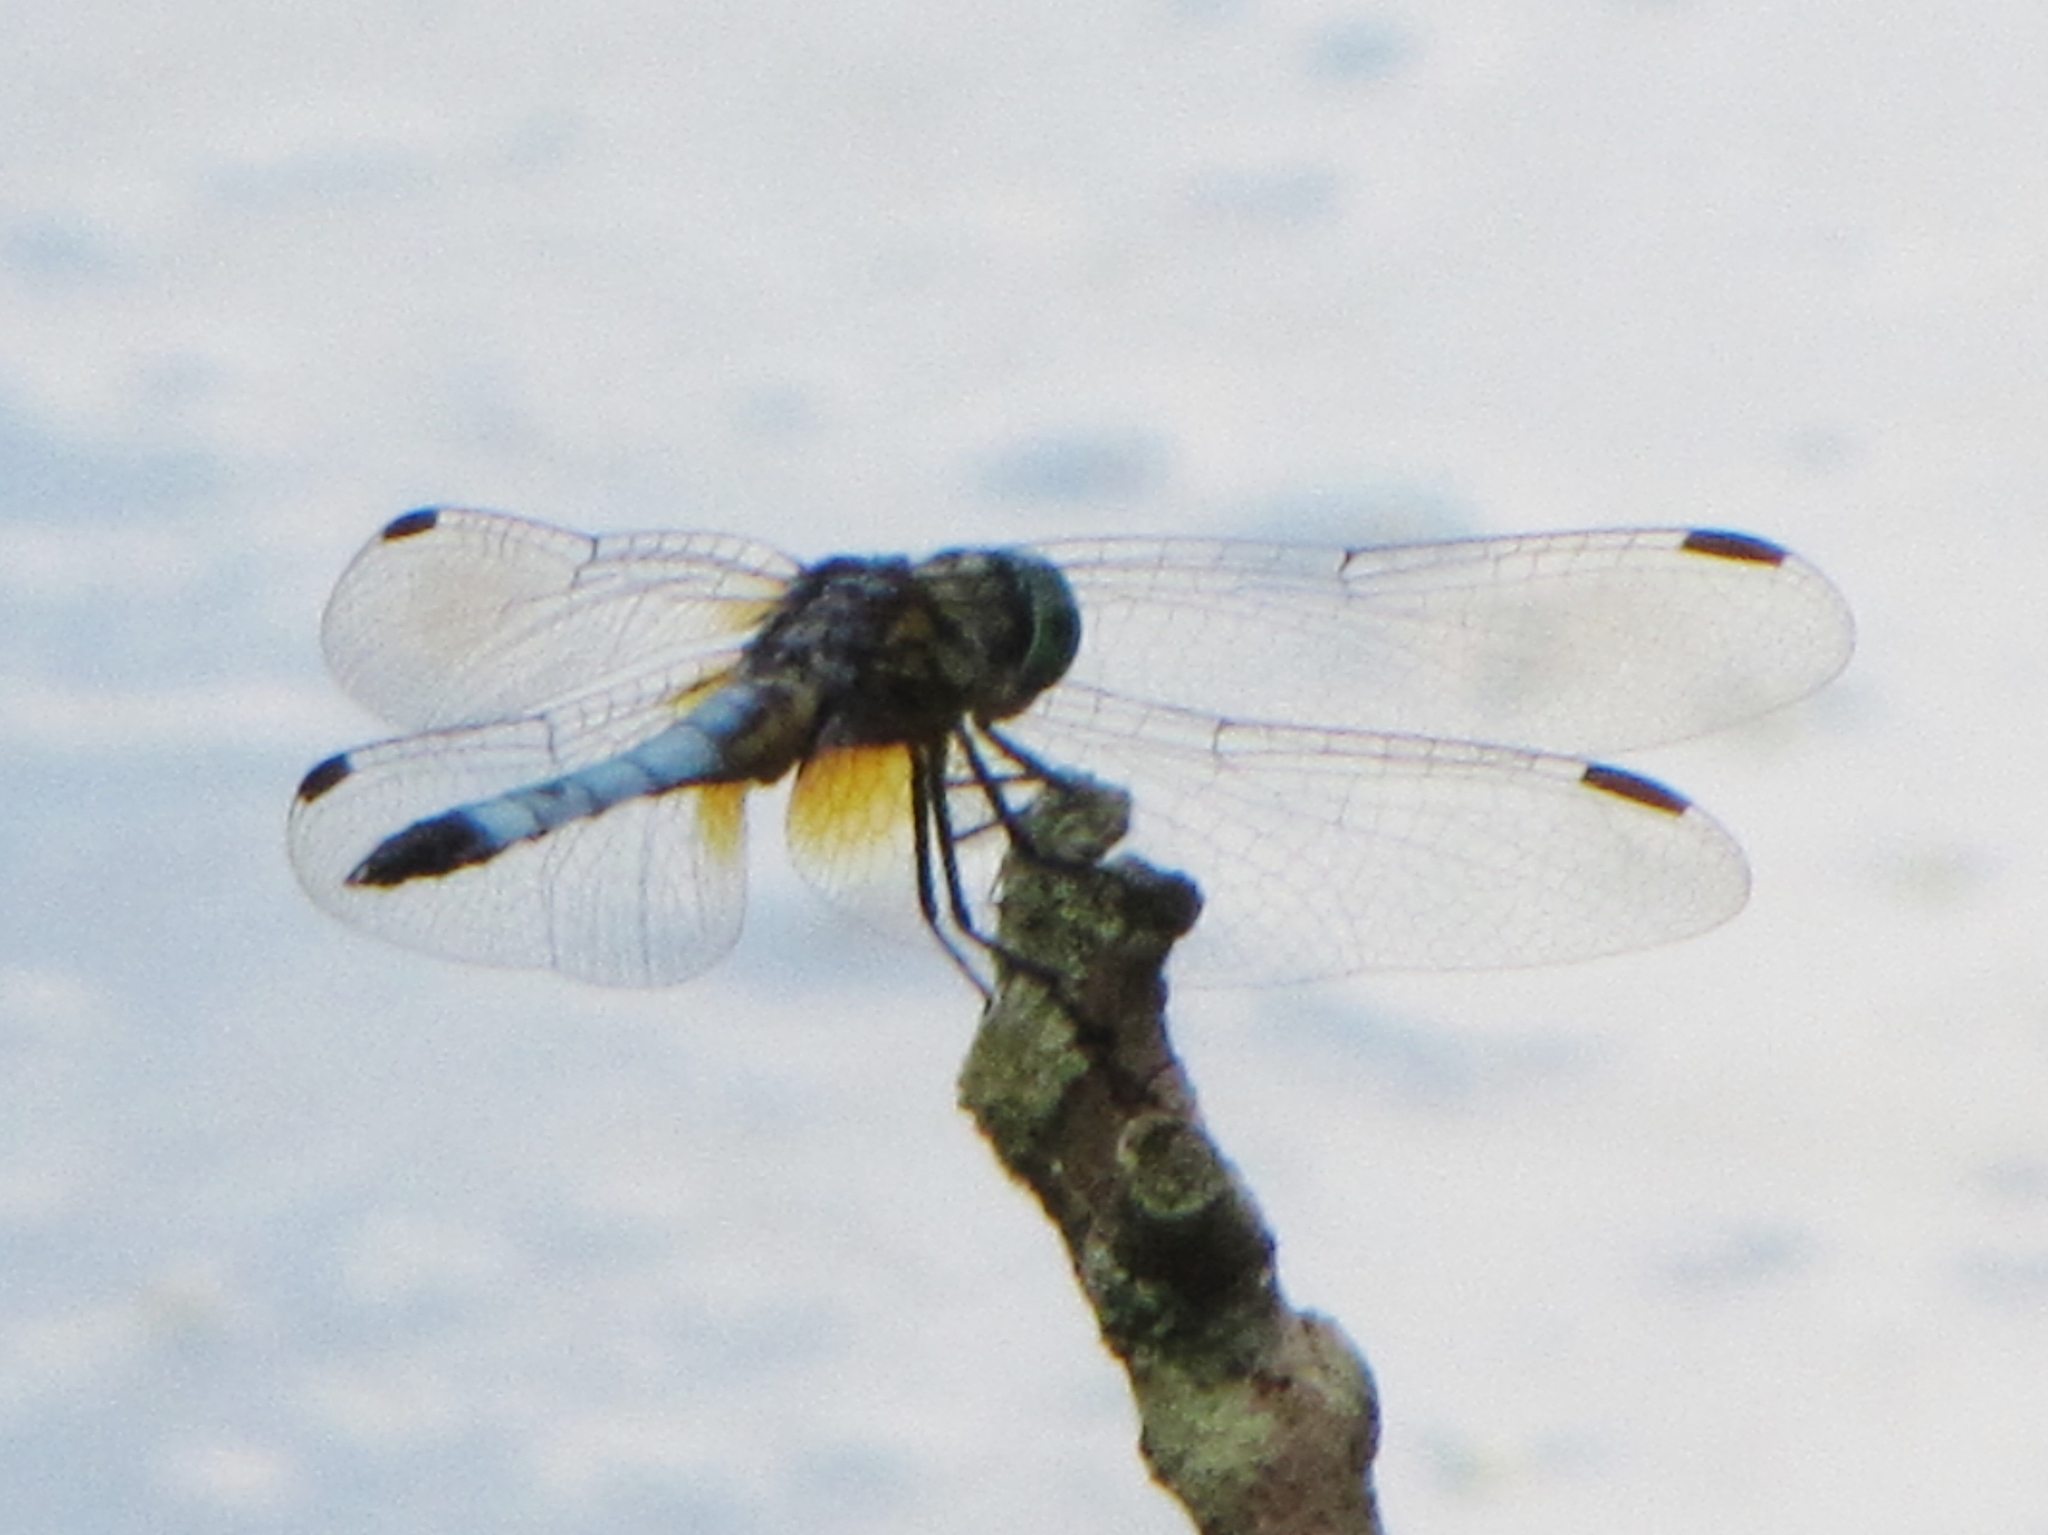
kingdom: Animalia
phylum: Arthropoda
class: Insecta
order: Odonata
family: Libellulidae
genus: Pachydiplax
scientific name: Pachydiplax longipennis
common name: Blue dasher
